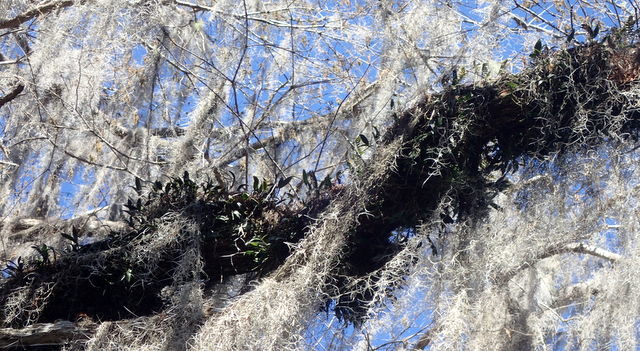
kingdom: Plantae
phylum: Tracheophyta
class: Liliopsida
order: Asparagales
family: Orchidaceae
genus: Epidendrum
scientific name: Epidendrum conopseum
